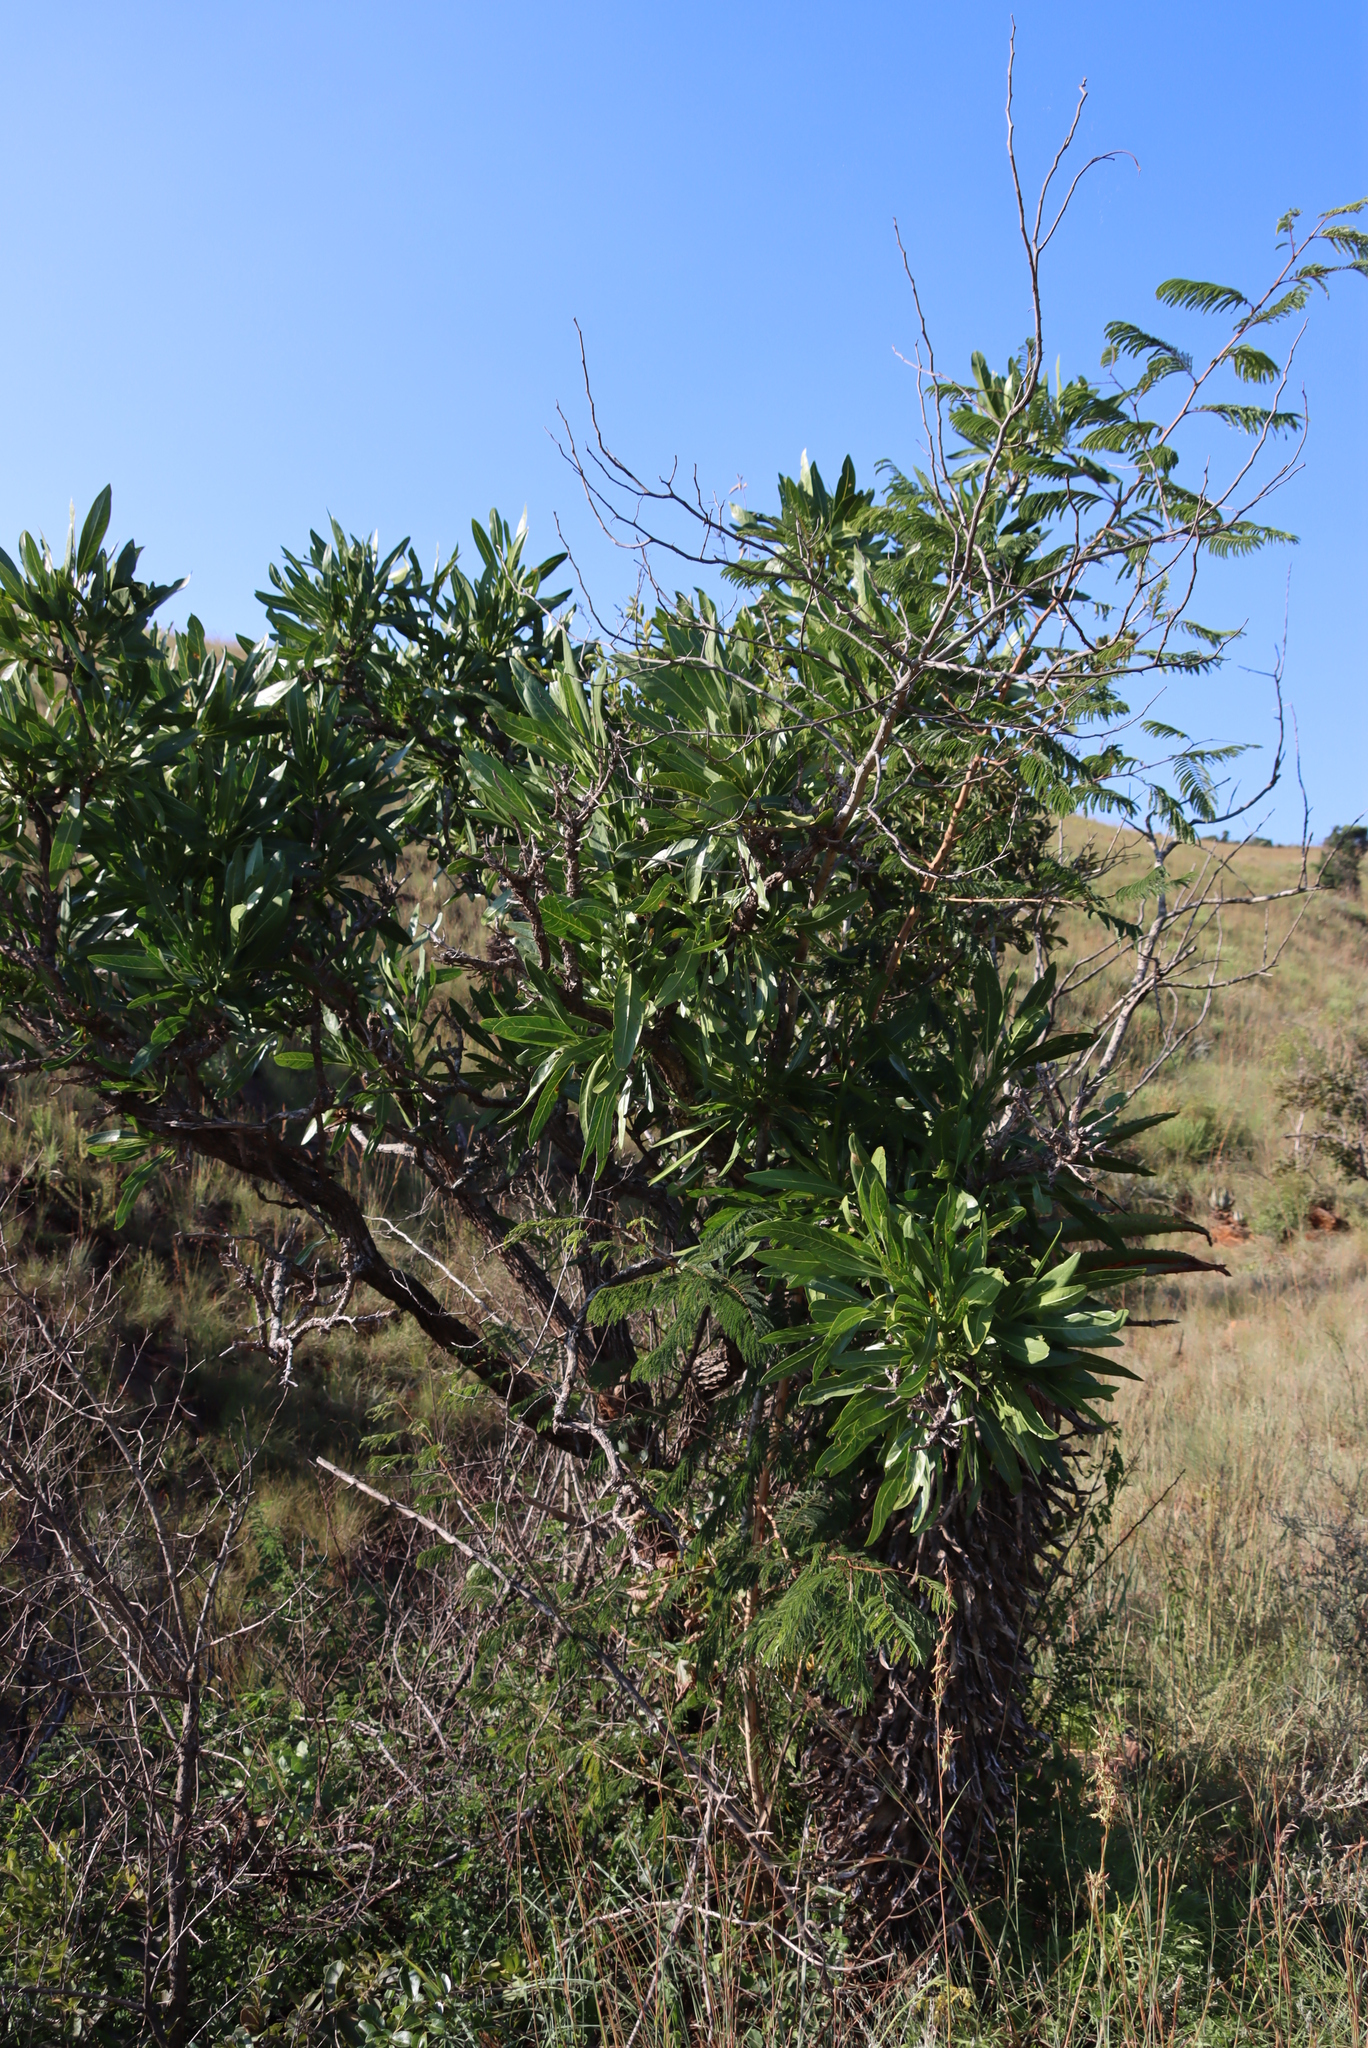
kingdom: Plantae
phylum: Tracheophyta
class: Magnoliopsida
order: Gentianales
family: Rubiaceae
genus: Pavetta
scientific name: Pavetta edentula
